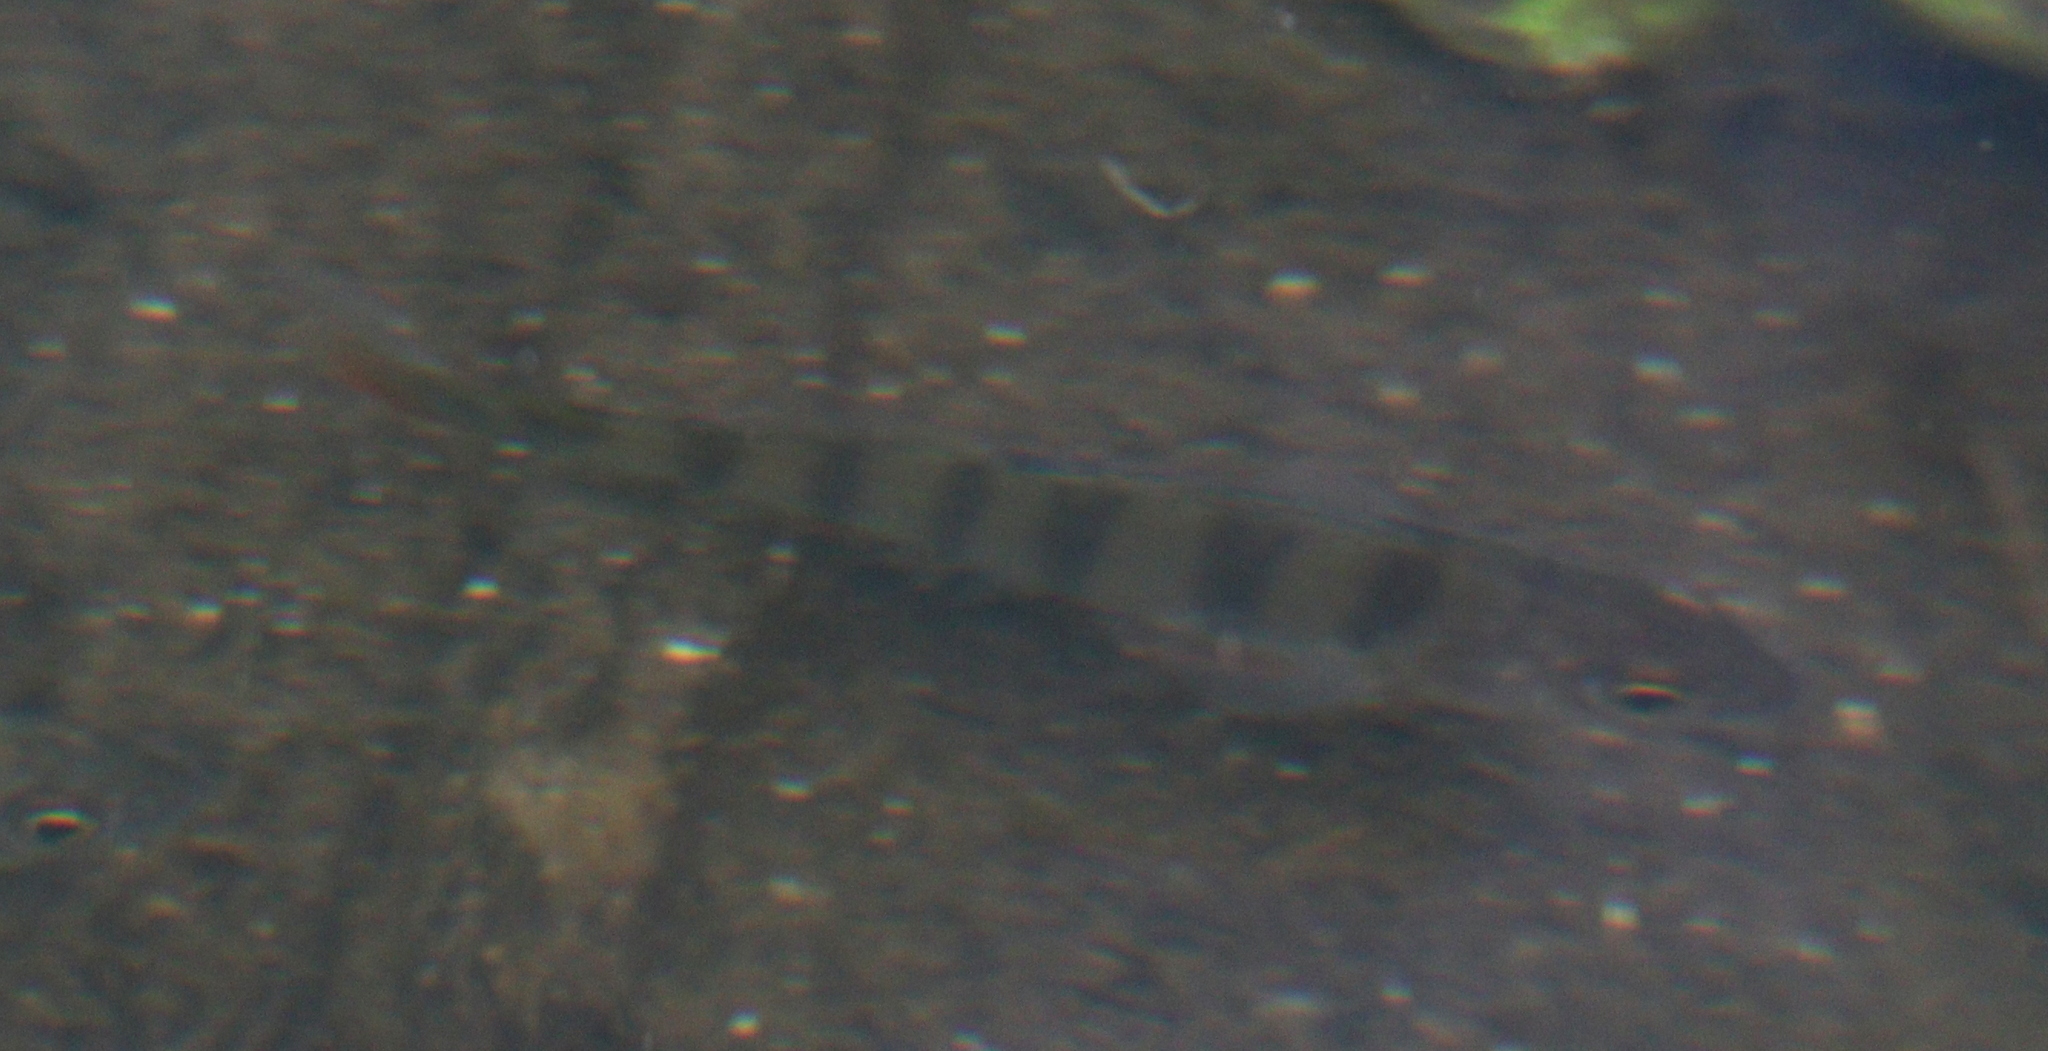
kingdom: Animalia
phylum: Chordata
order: Perciformes
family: Percidae
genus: Perca
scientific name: Perca fluviatilis
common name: Perch
